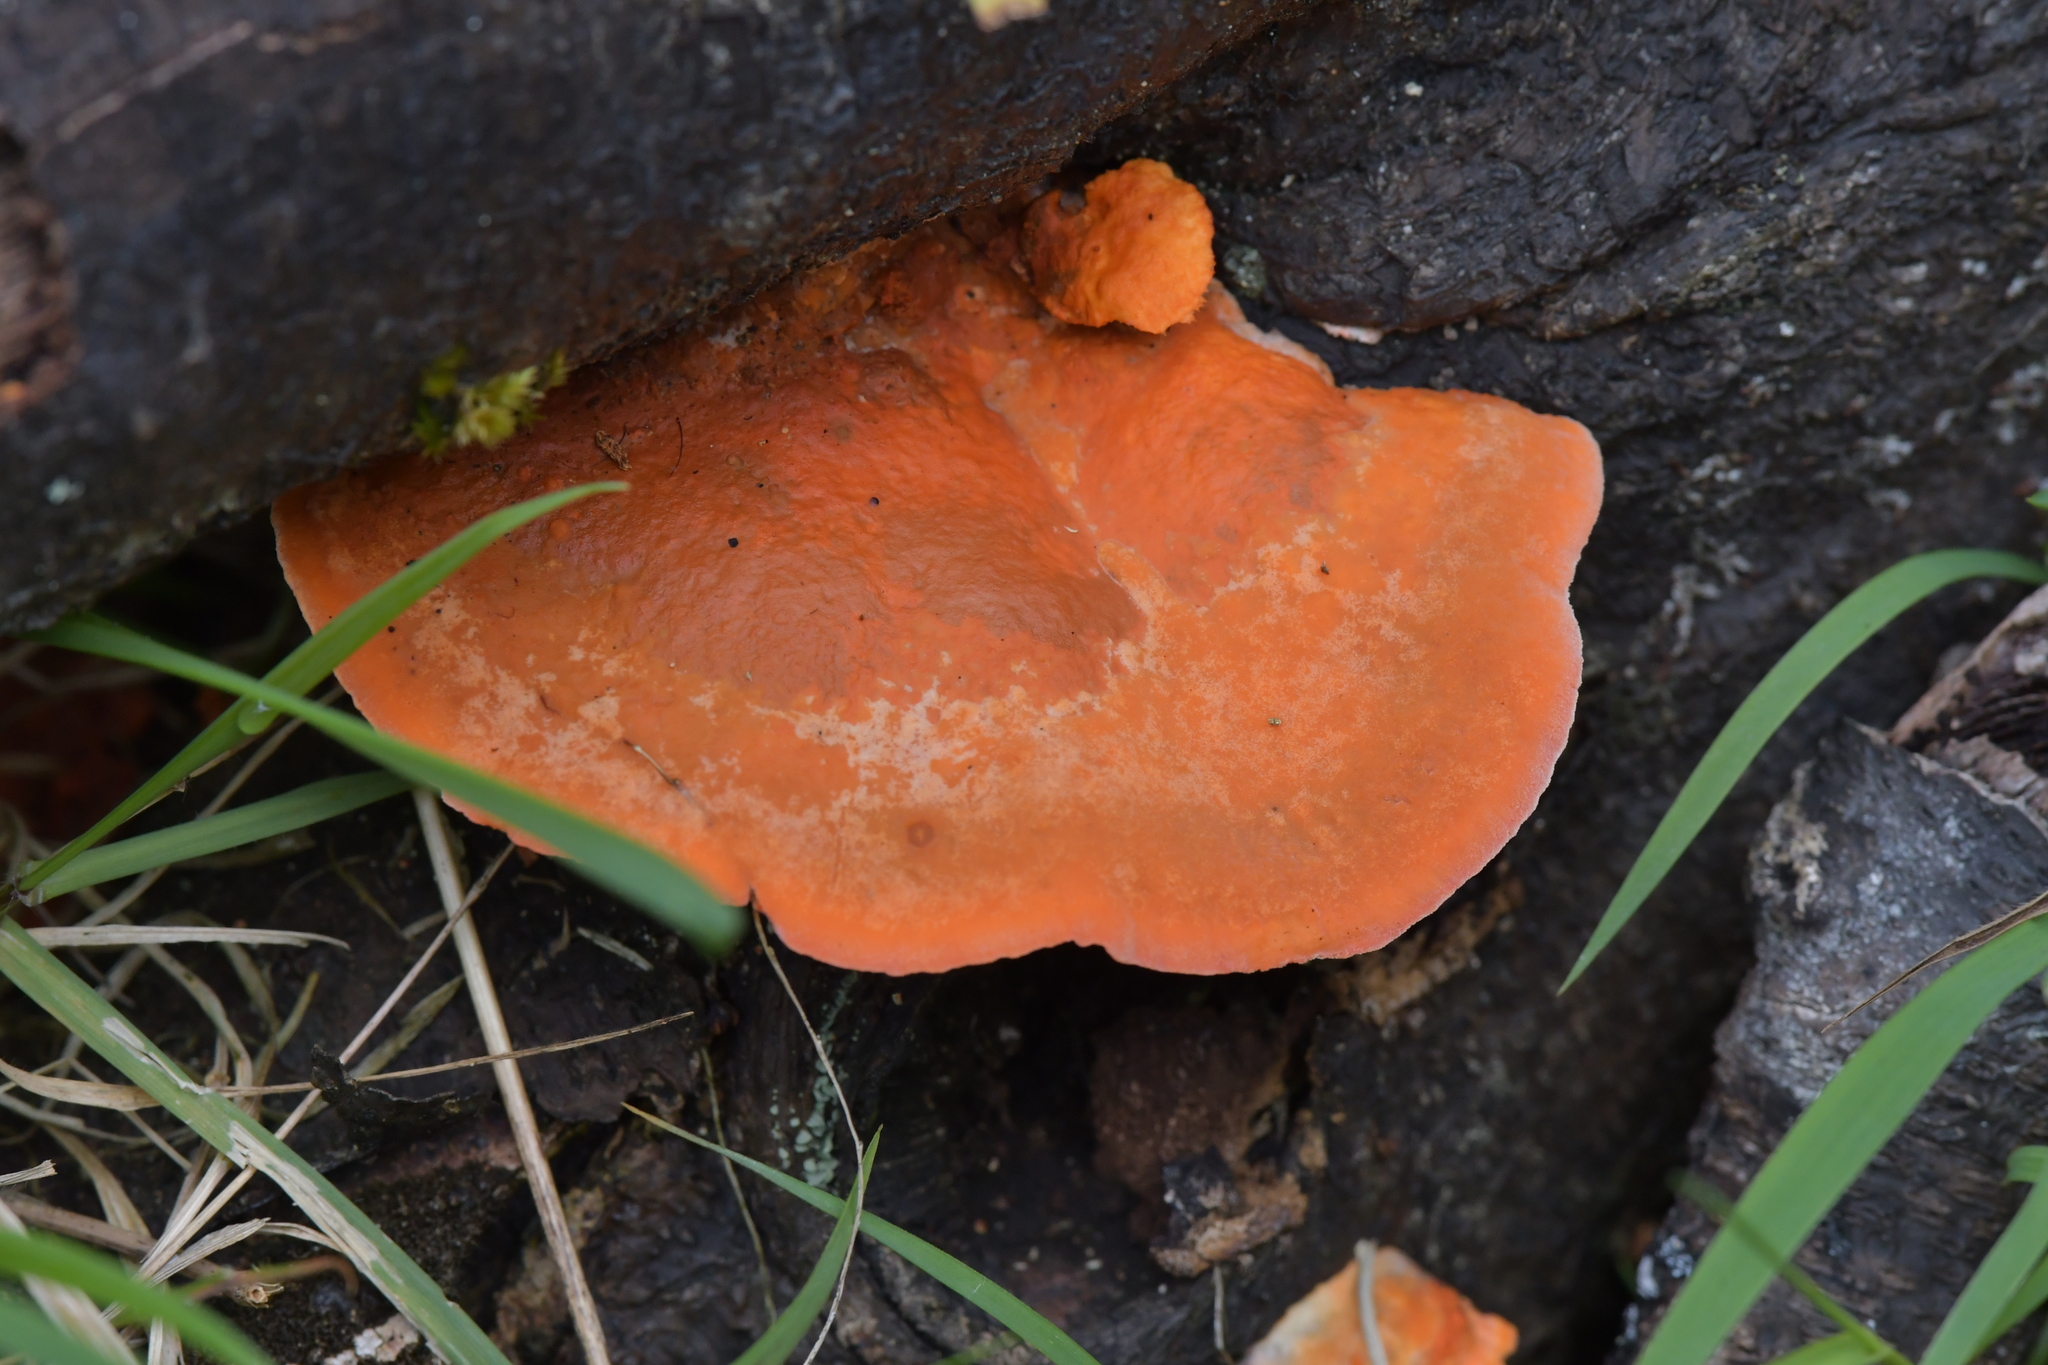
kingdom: Fungi
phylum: Basidiomycota
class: Agaricomycetes
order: Polyporales
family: Polyporaceae
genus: Trametes
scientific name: Trametes coccinea
